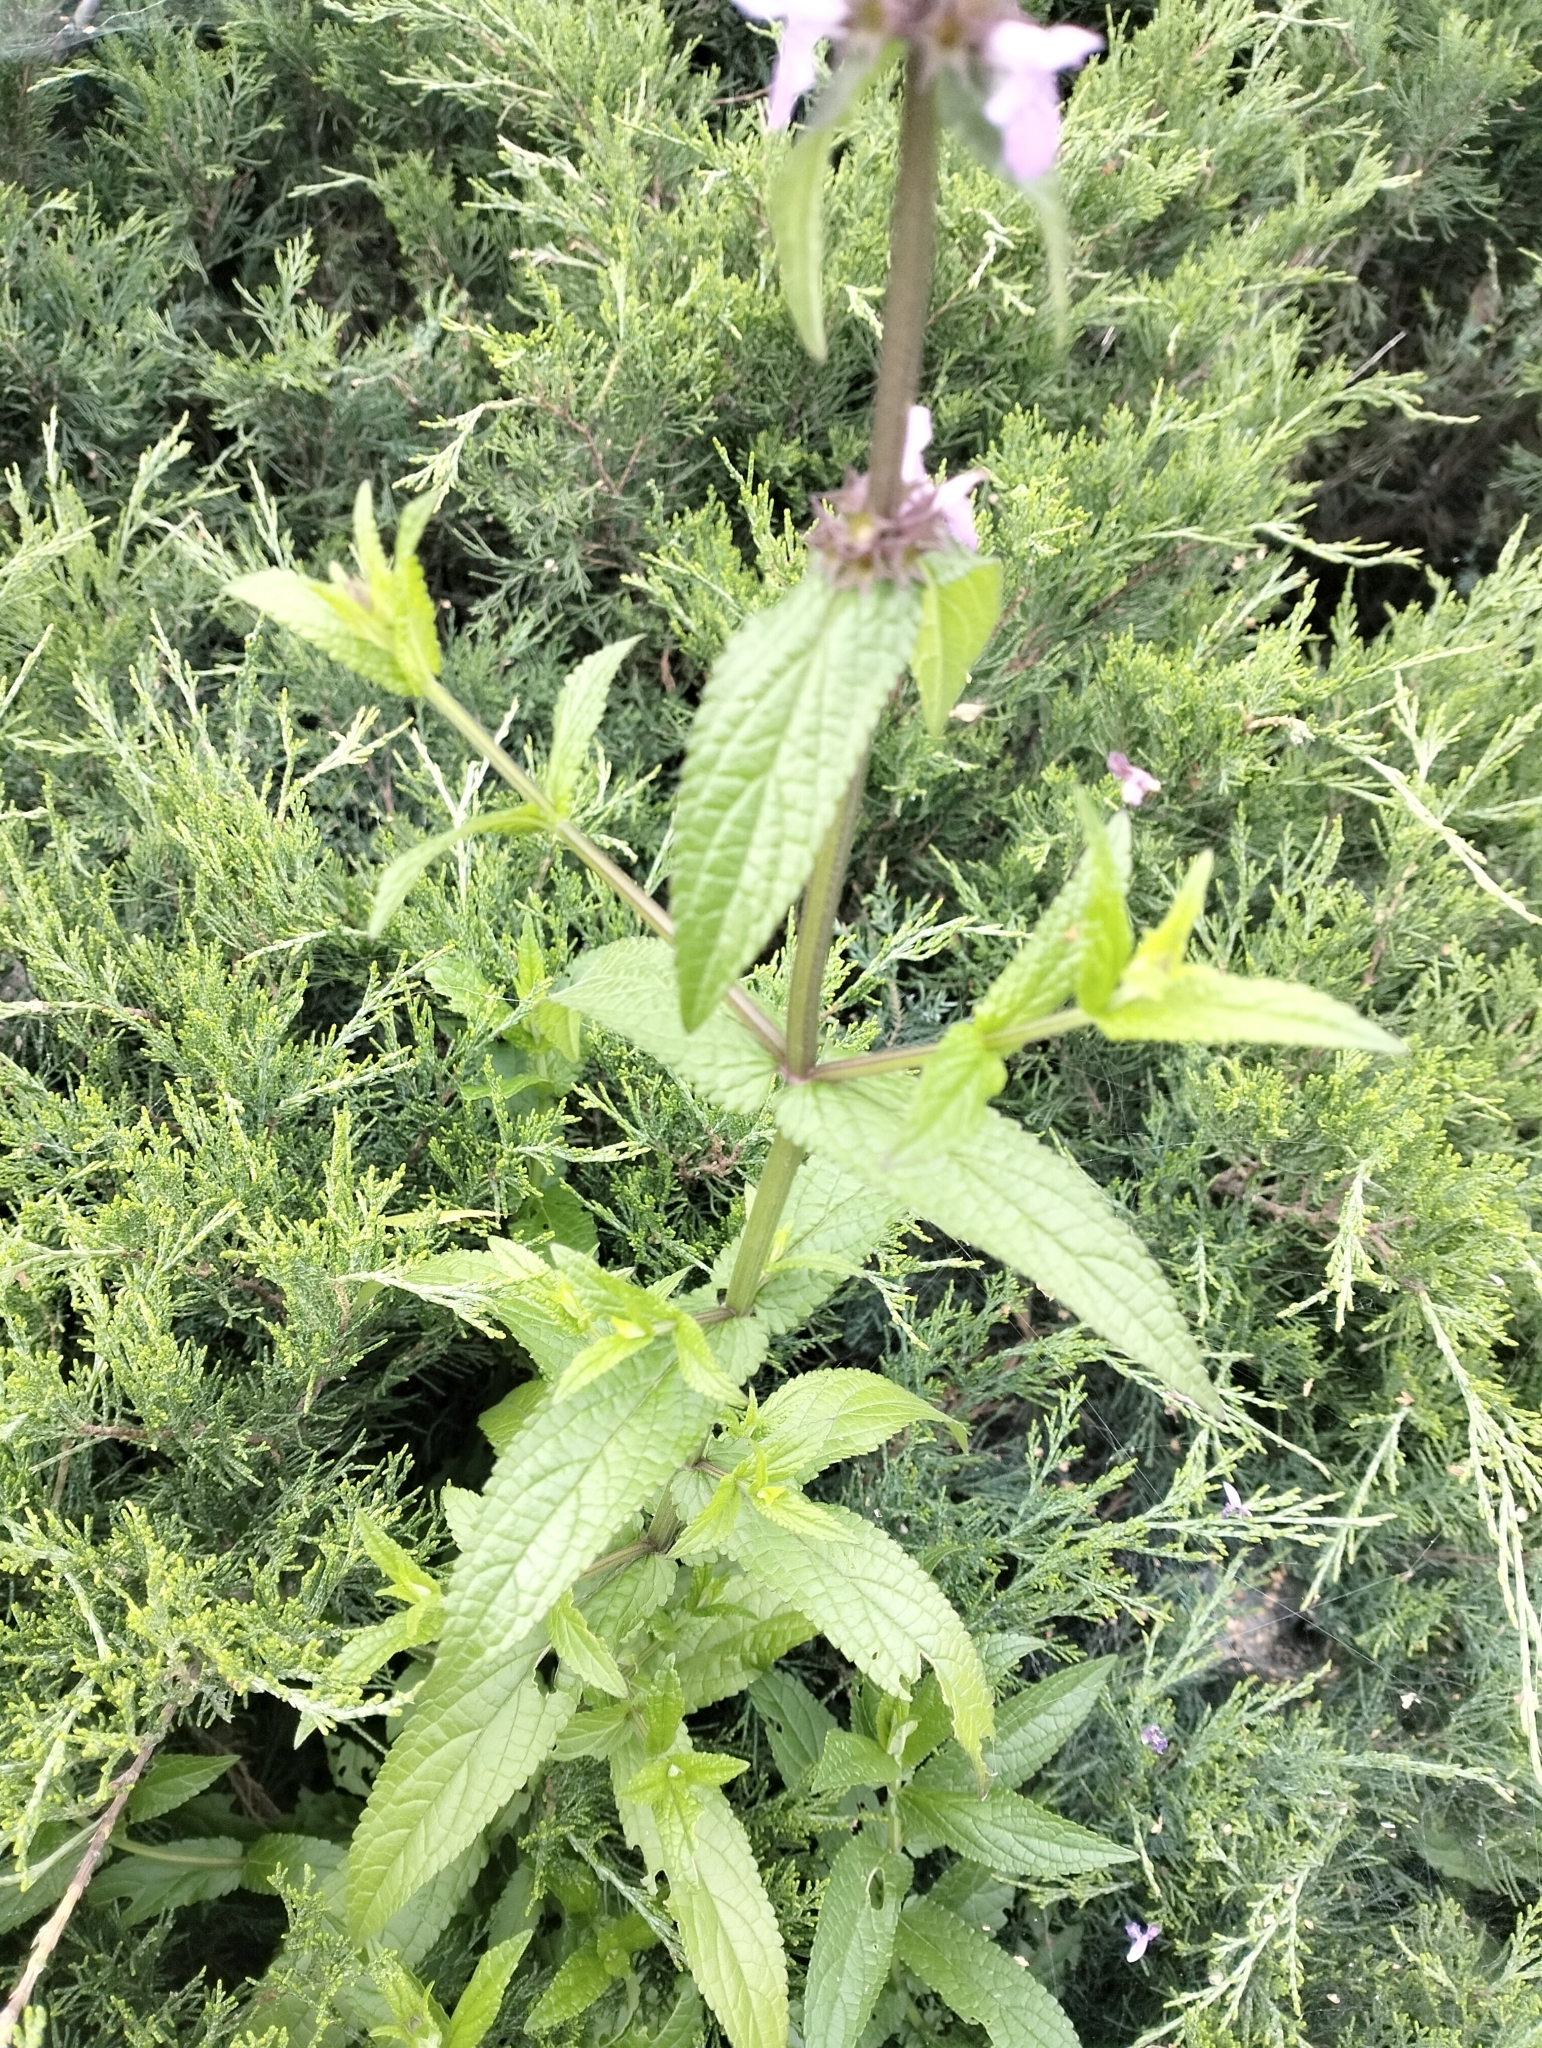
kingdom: Plantae
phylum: Tracheophyta
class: Magnoliopsida
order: Lamiales
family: Lamiaceae
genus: Stachys
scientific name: Stachys palustris
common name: Marsh woundwort
